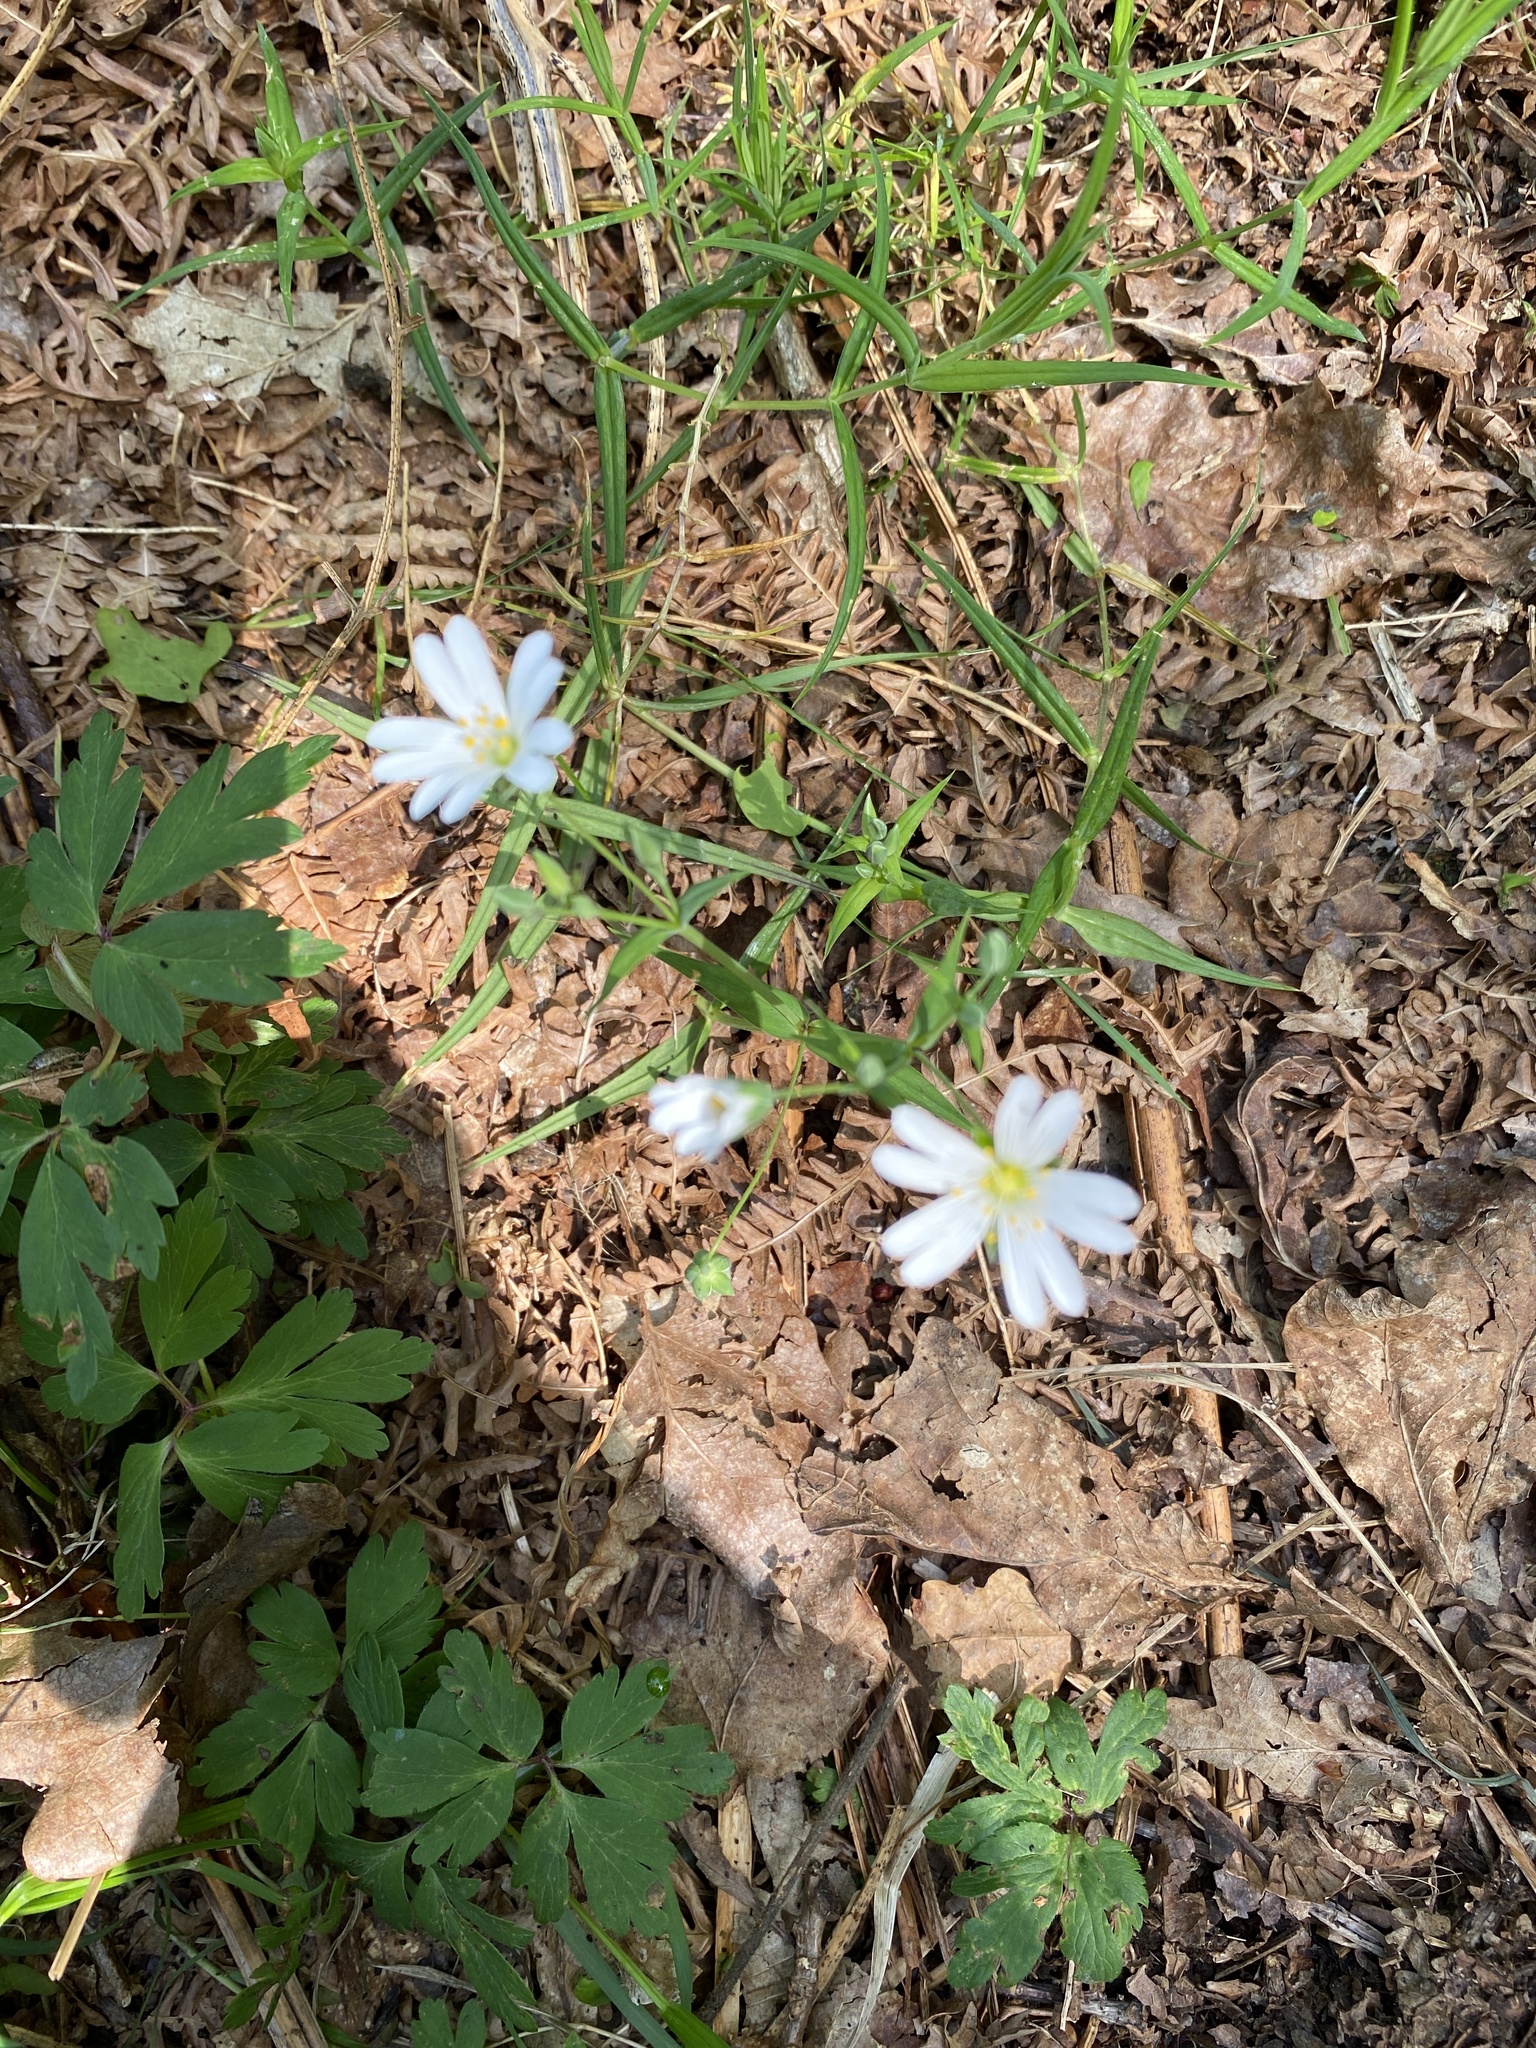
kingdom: Plantae
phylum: Tracheophyta
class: Magnoliopsida
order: Caryophyllales
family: Caryophyllaceae
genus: Rabelera
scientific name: Rabelera holostea
